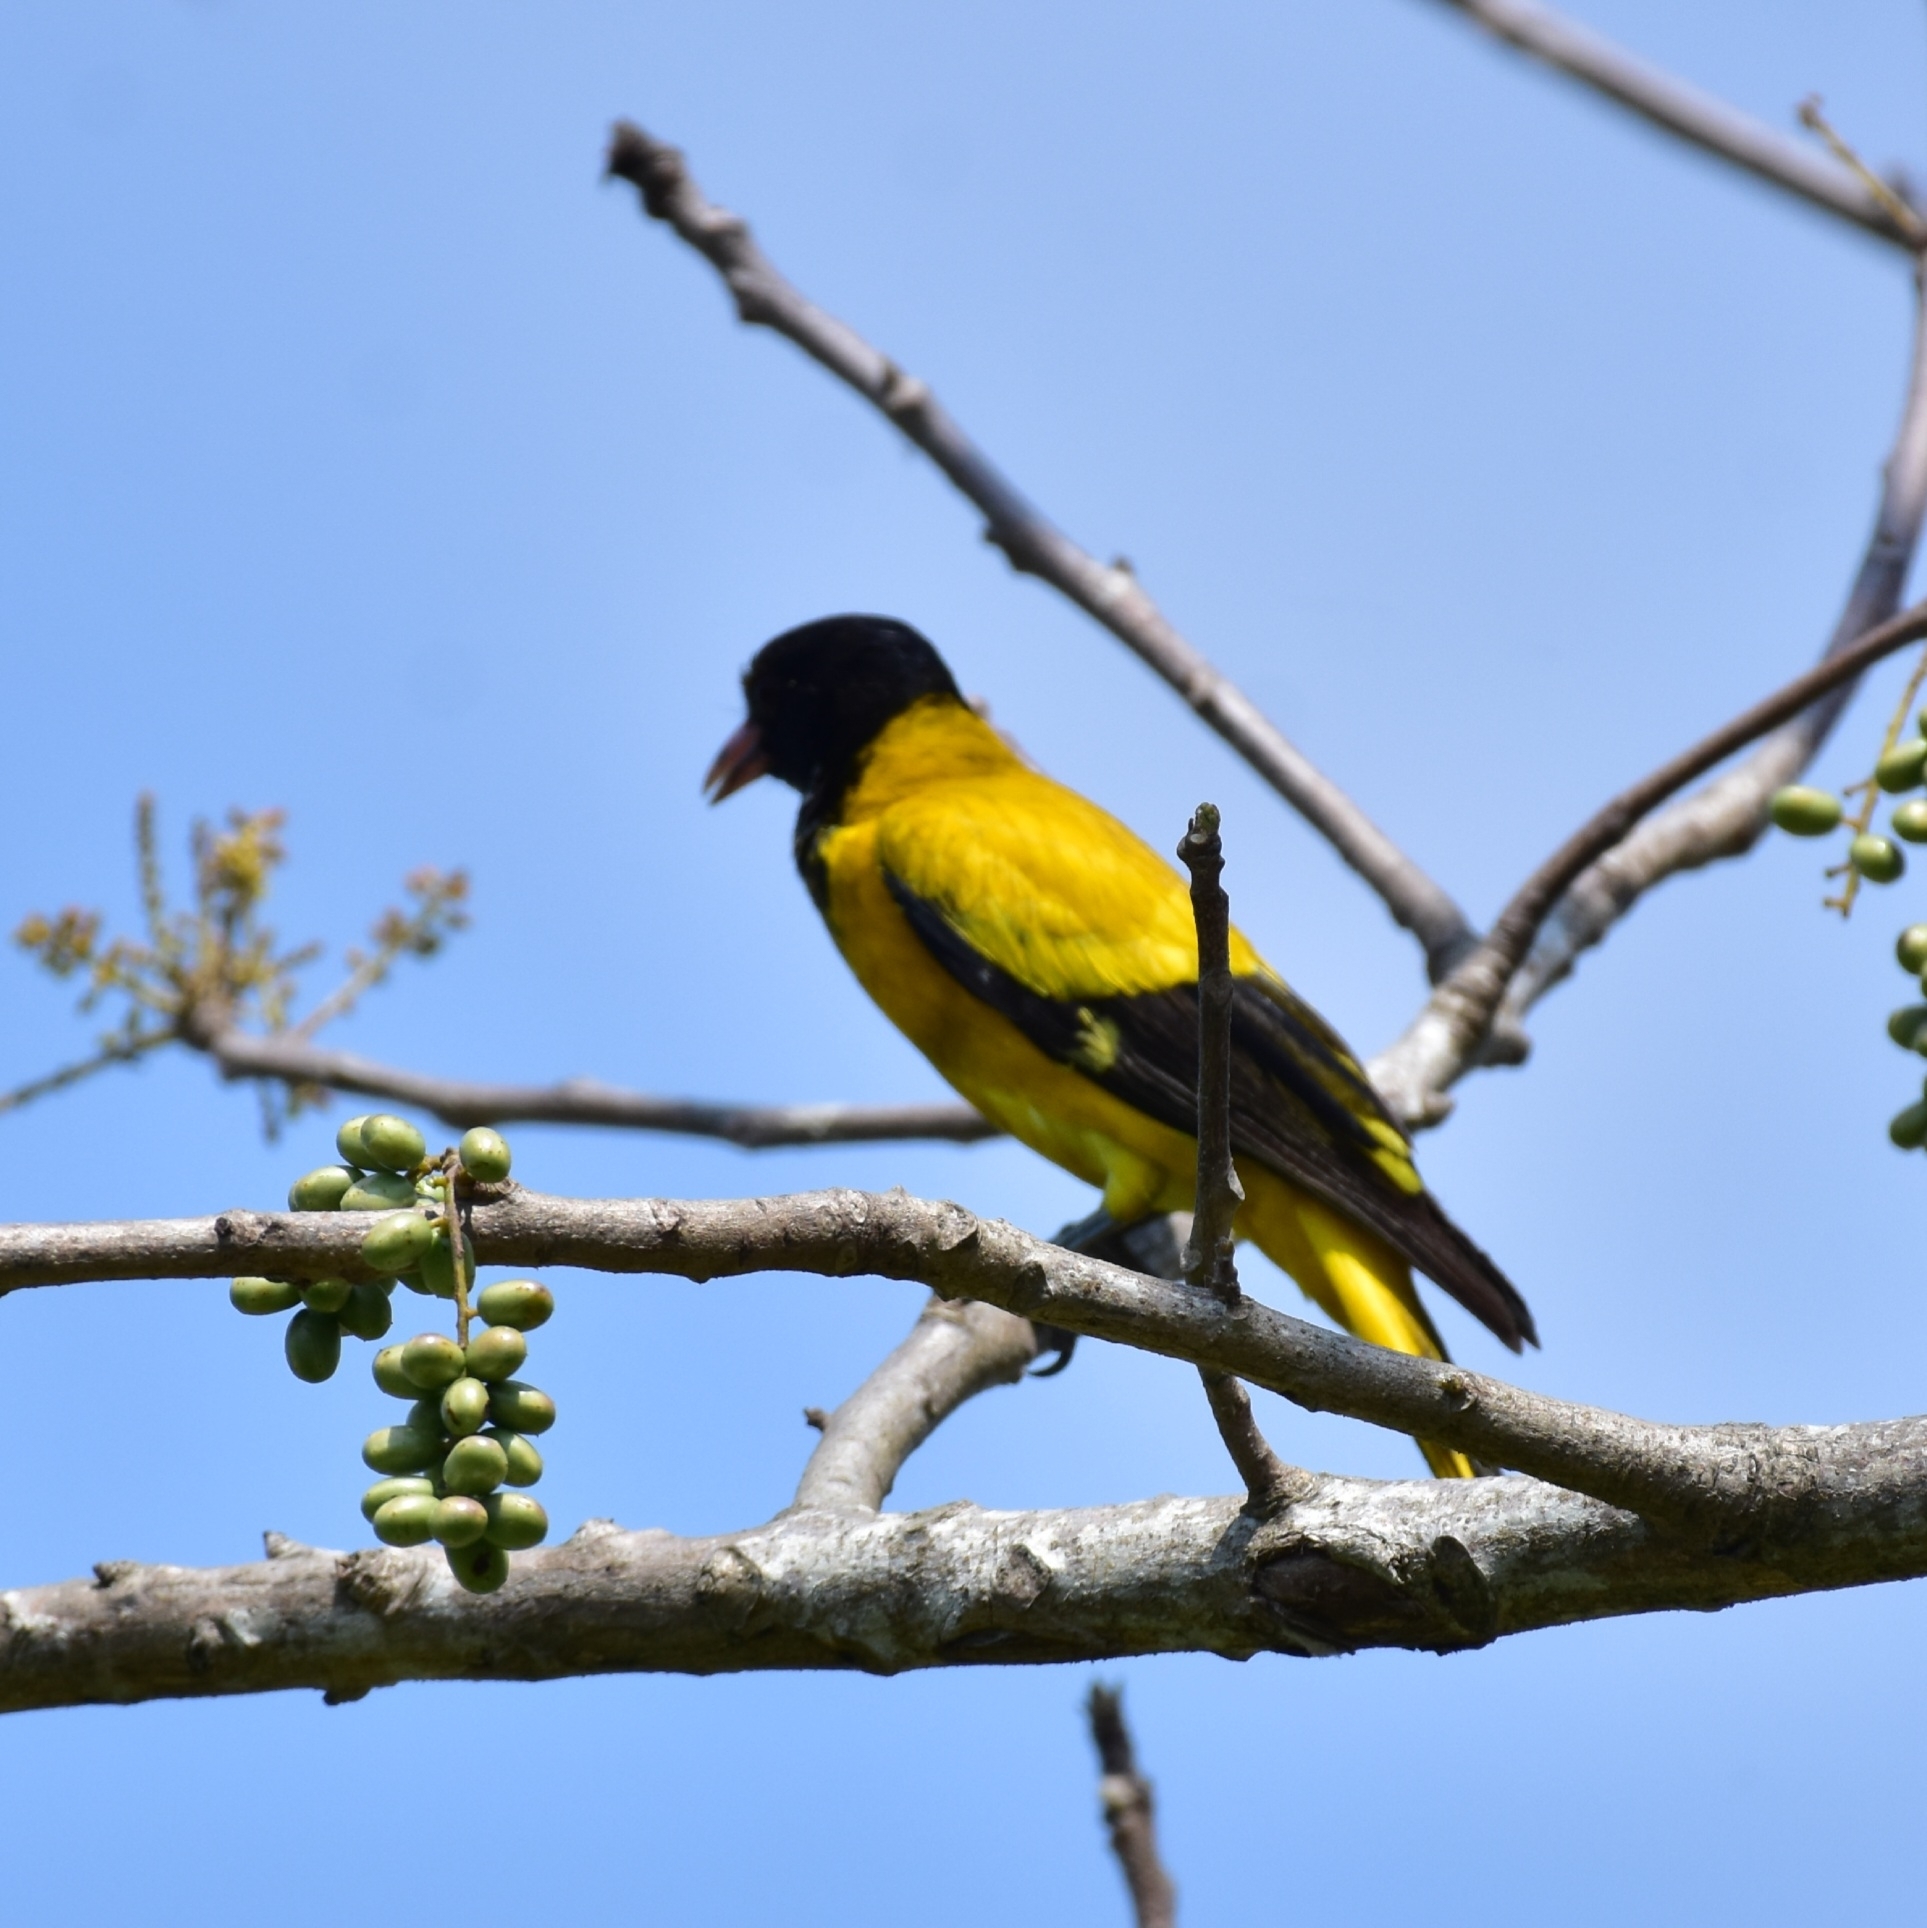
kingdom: Animalia
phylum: Chordata
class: Aves
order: Passeriformes
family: Oriolidae
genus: Oriolus
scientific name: Oriolus xanthornus
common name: Black-hooded oriole
